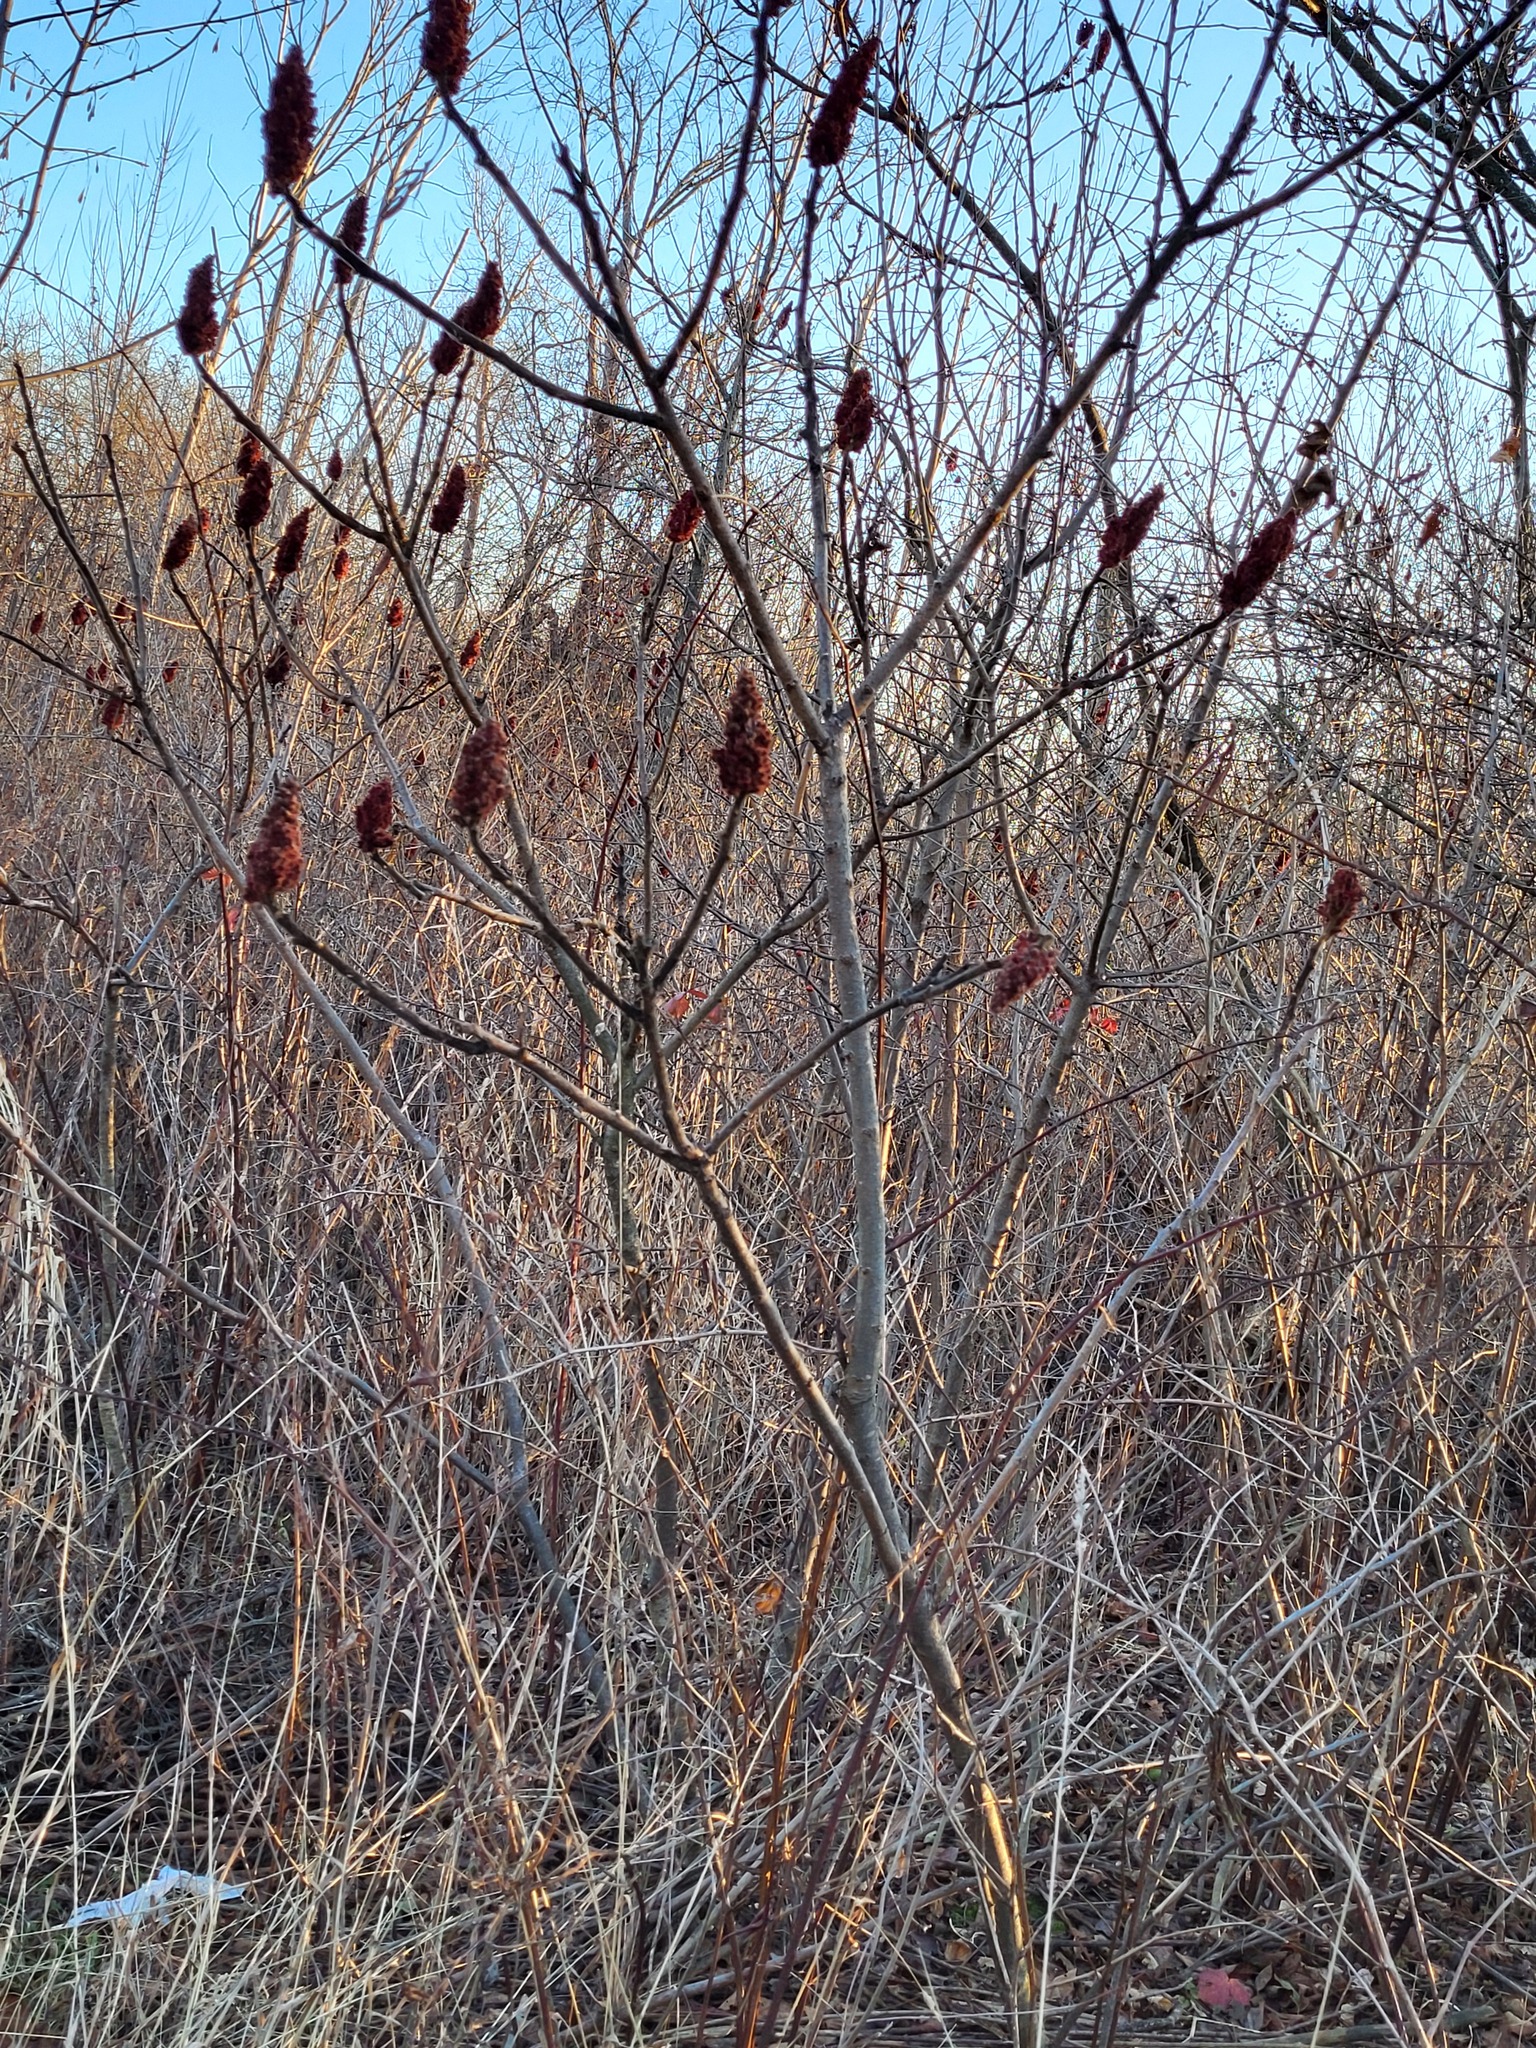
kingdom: Plantae
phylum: Tracheophyta
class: Magnoliopsida
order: Sapindales
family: Anacardiaceae
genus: Rhus
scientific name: Rhus typhina
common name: Staghorn sumac
